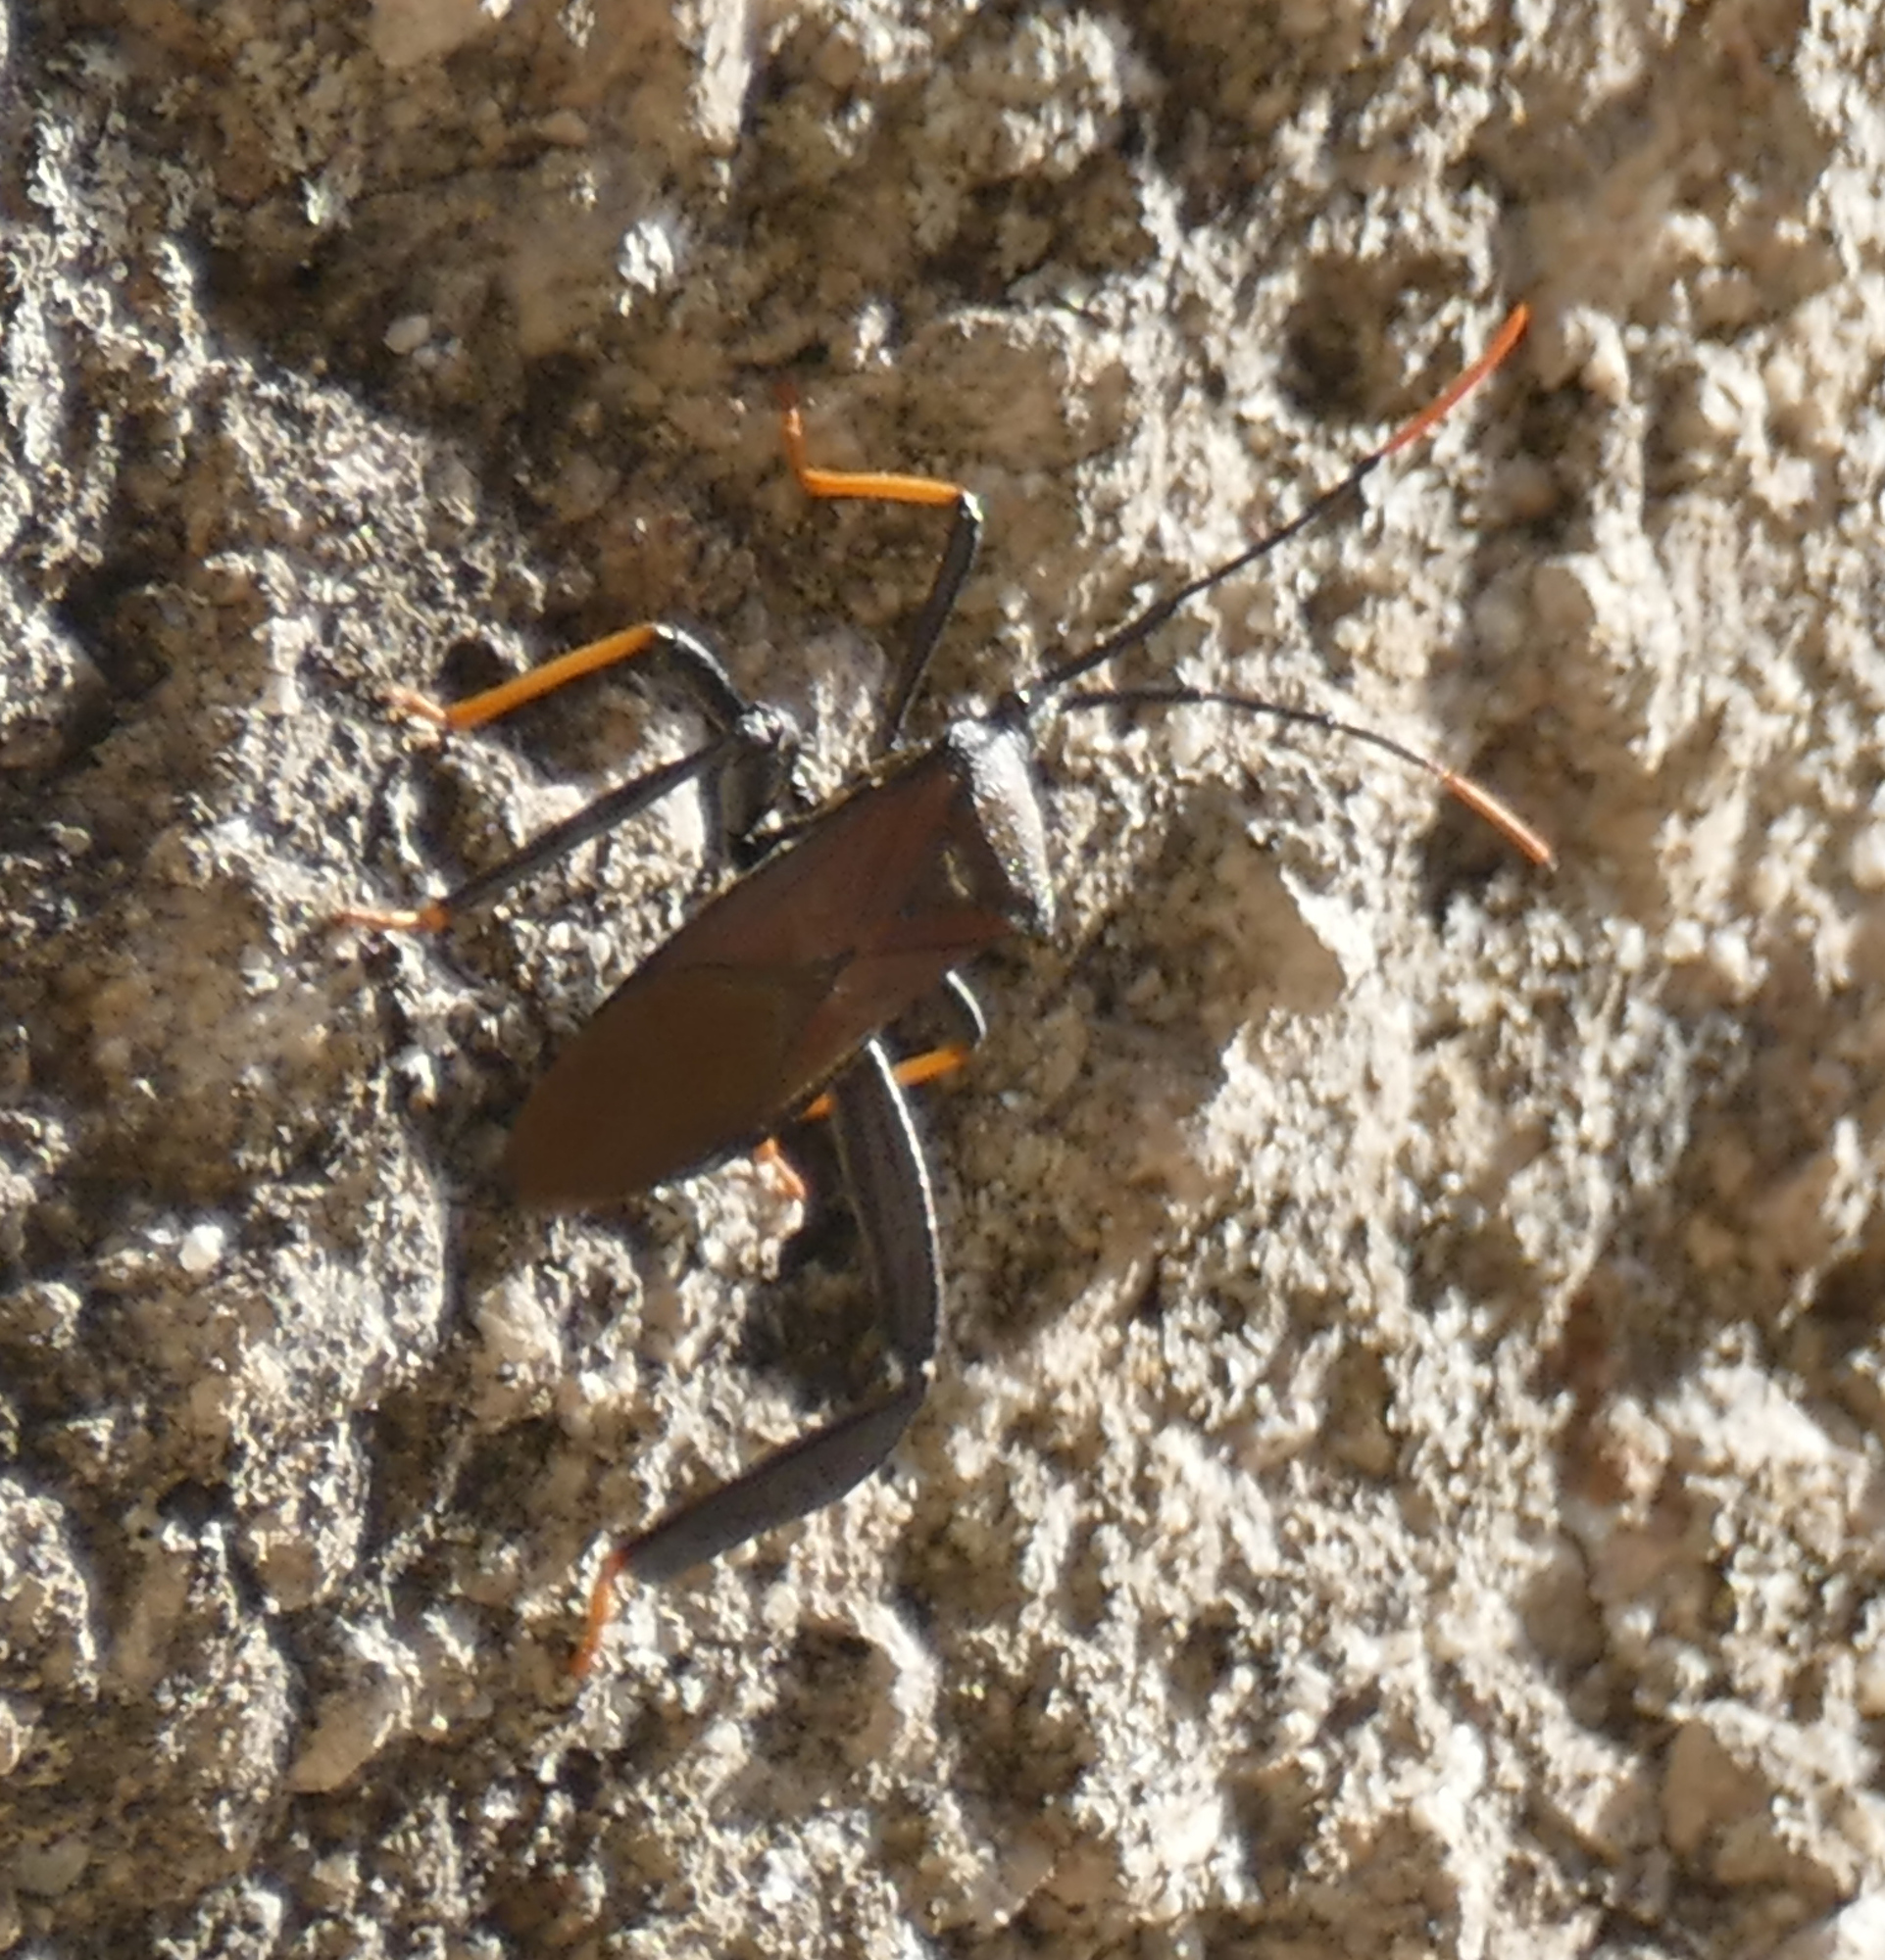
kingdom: Animalia
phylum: Arthropoda
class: Insecta
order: Hemiptera
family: Coreidae
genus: Acanthocephala
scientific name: Acanthocephala thomasi
